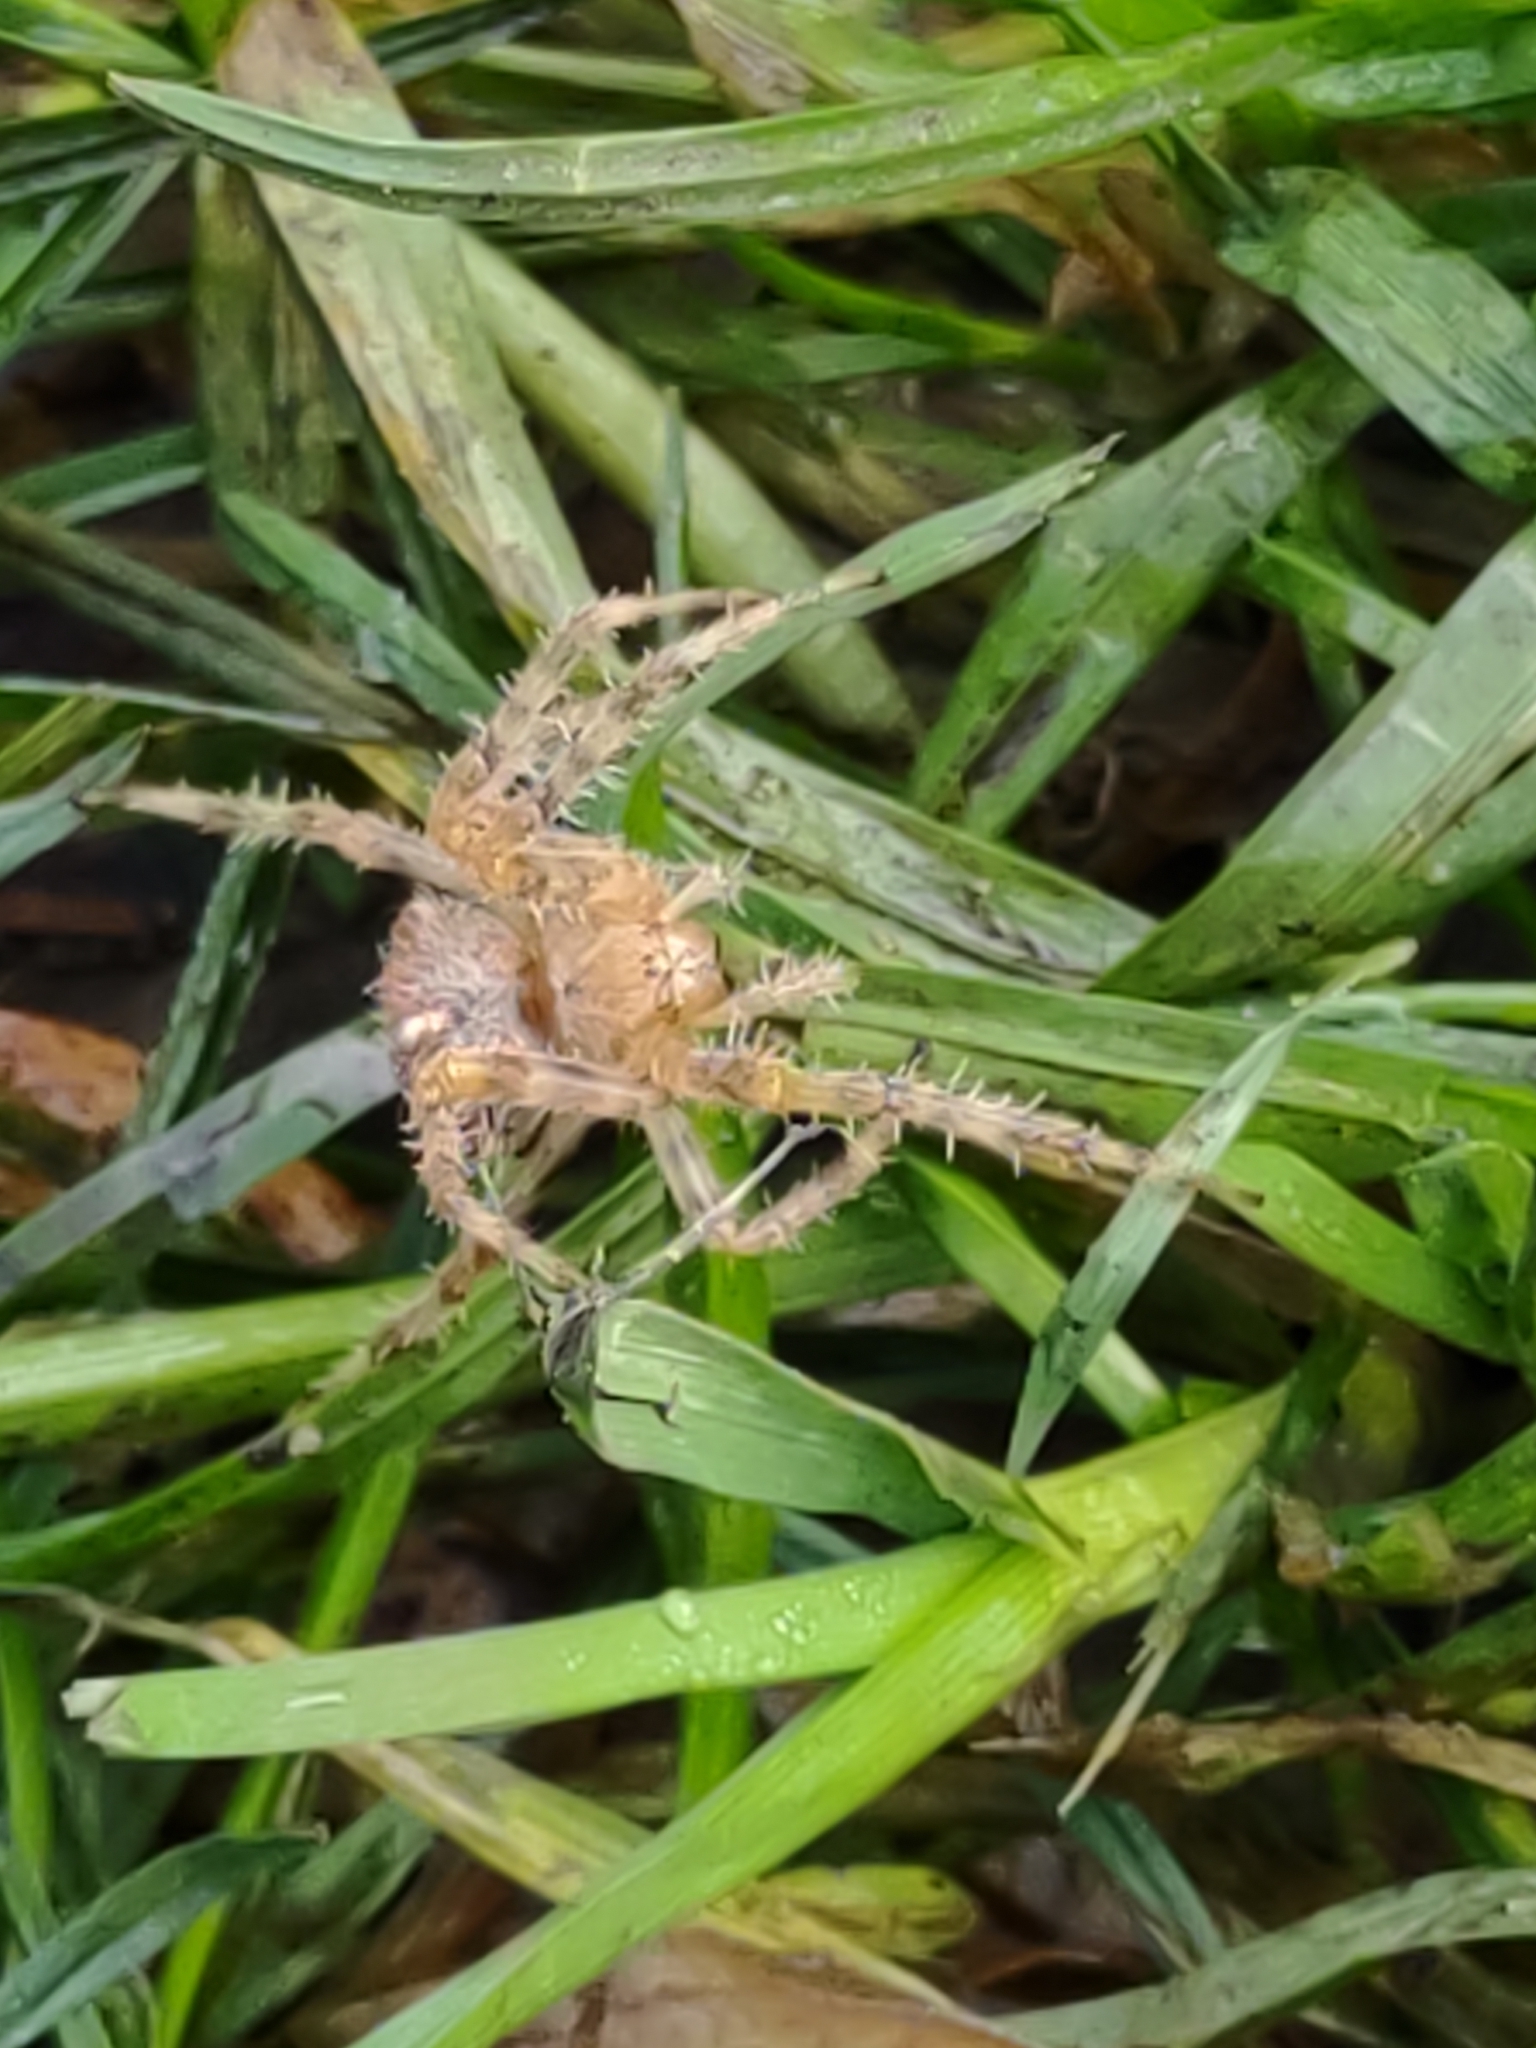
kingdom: Animalia
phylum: Arthropoda
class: Arachnida
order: Araneae
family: Araneidae
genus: Araneus
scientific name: Araneus diadematus
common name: Cross orbweaver
